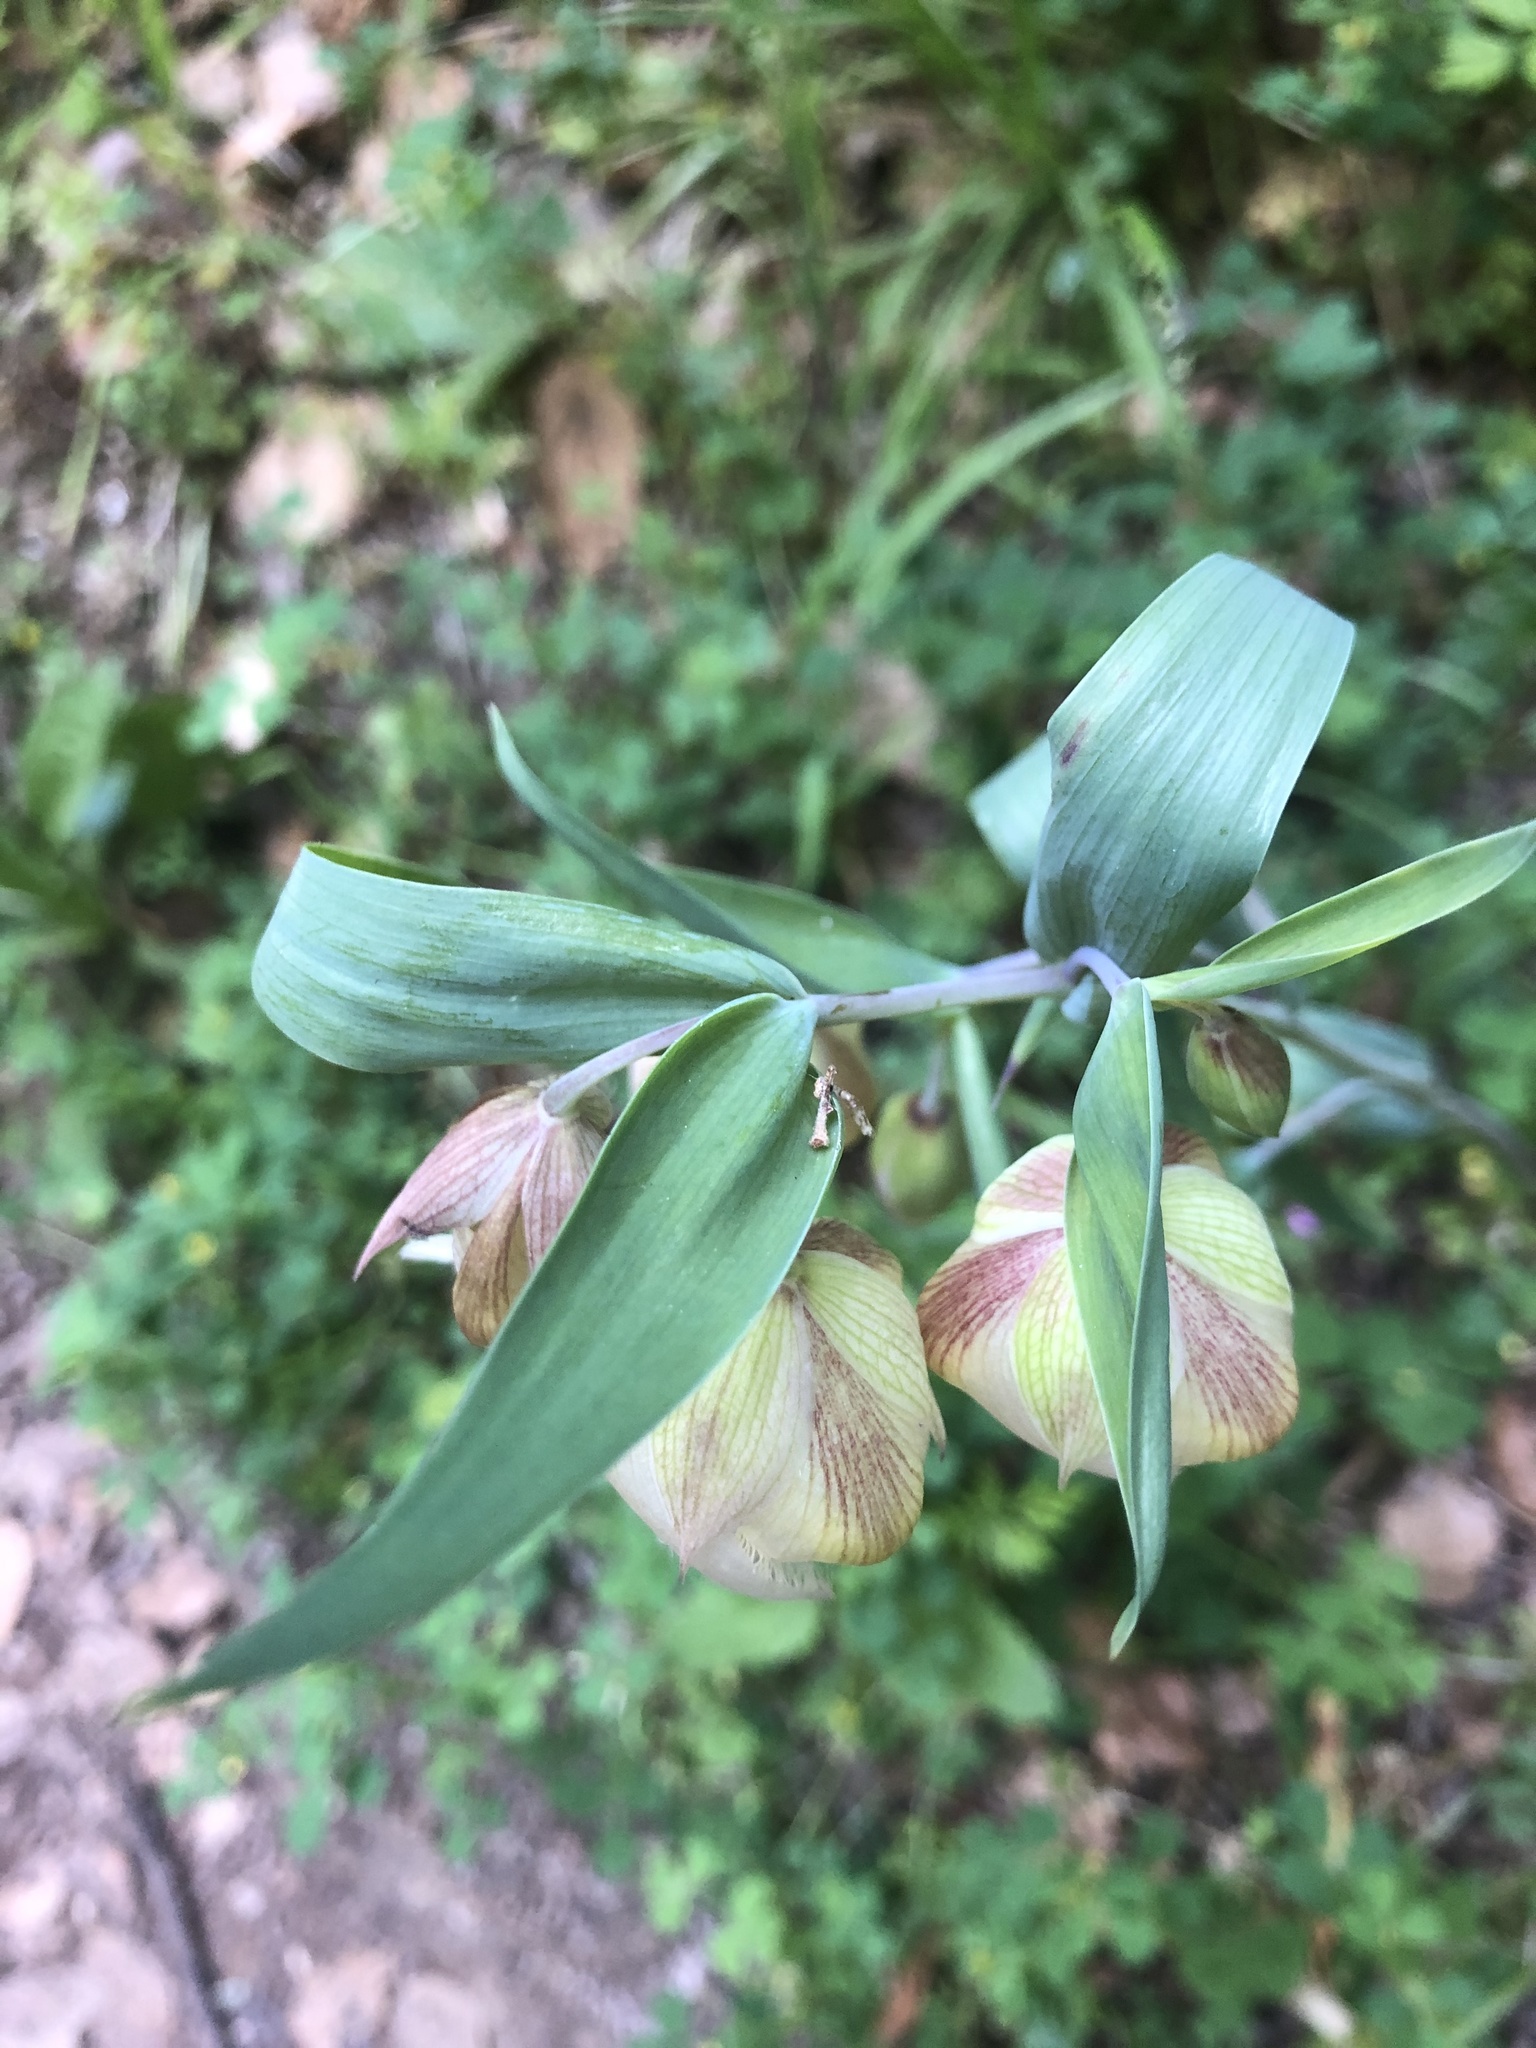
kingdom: Plantae
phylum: Tracheophyta
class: Liliopsida
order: Liliales
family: Liliaceae
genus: Calochortus
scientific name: Calochortus albus
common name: Fairy-lantern
